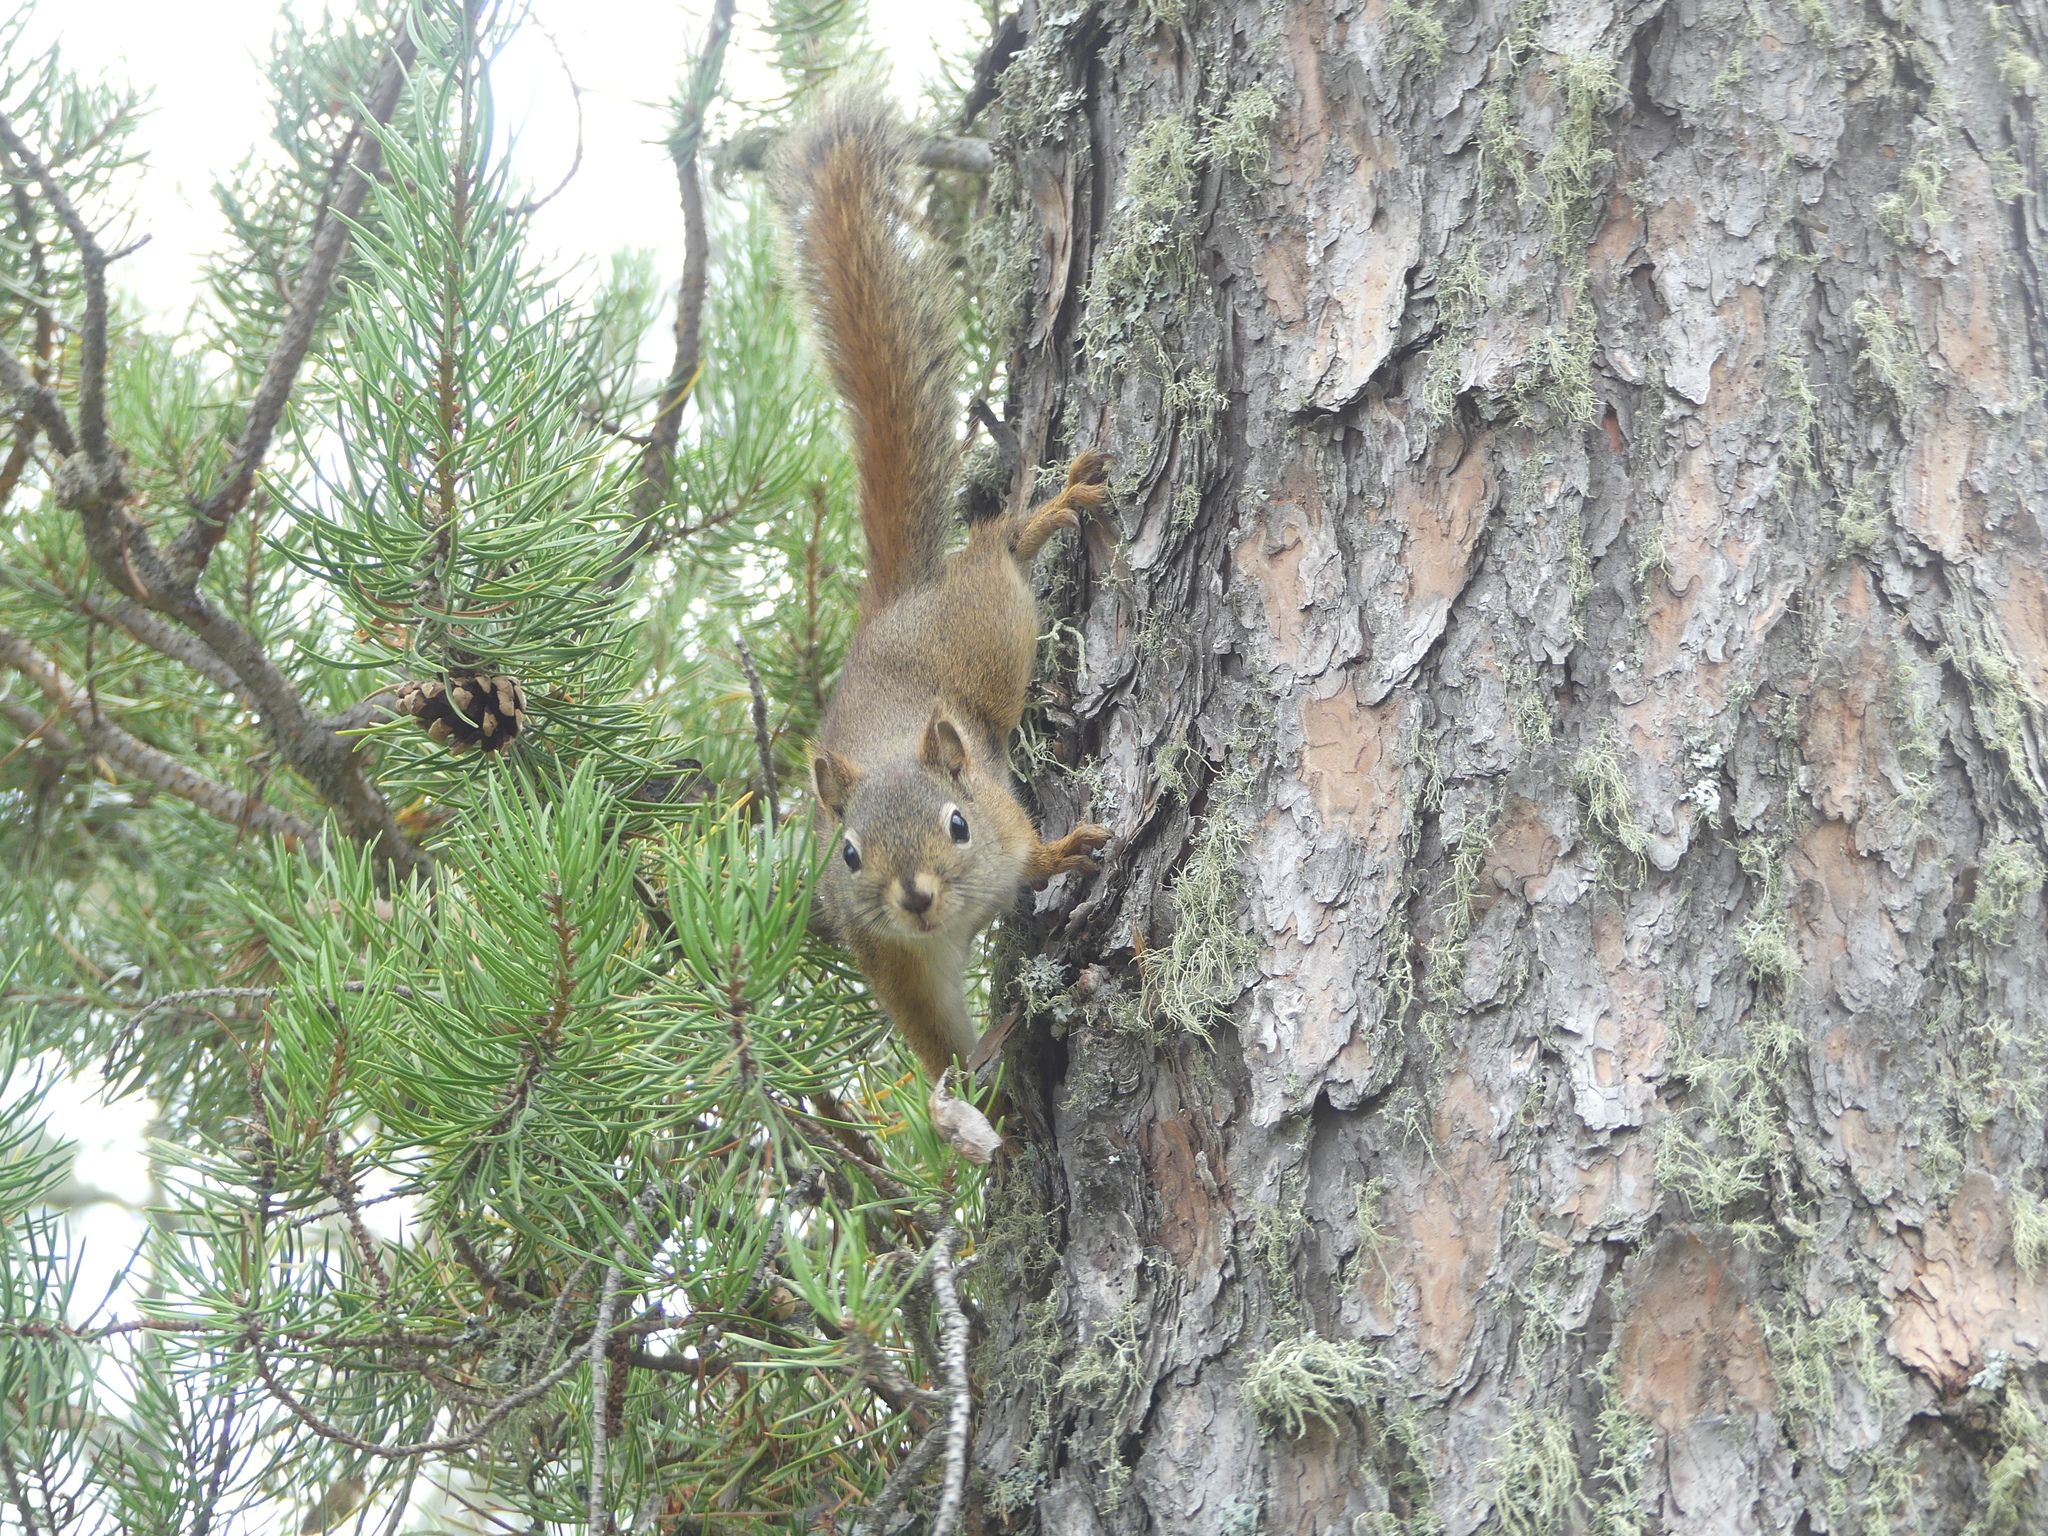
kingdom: Animalia
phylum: Chordata
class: Mammalia
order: Rodentia
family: Sciuridae
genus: Tamiasciurus
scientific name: Tamiasciurus hudsonicus
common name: Red squirrel
